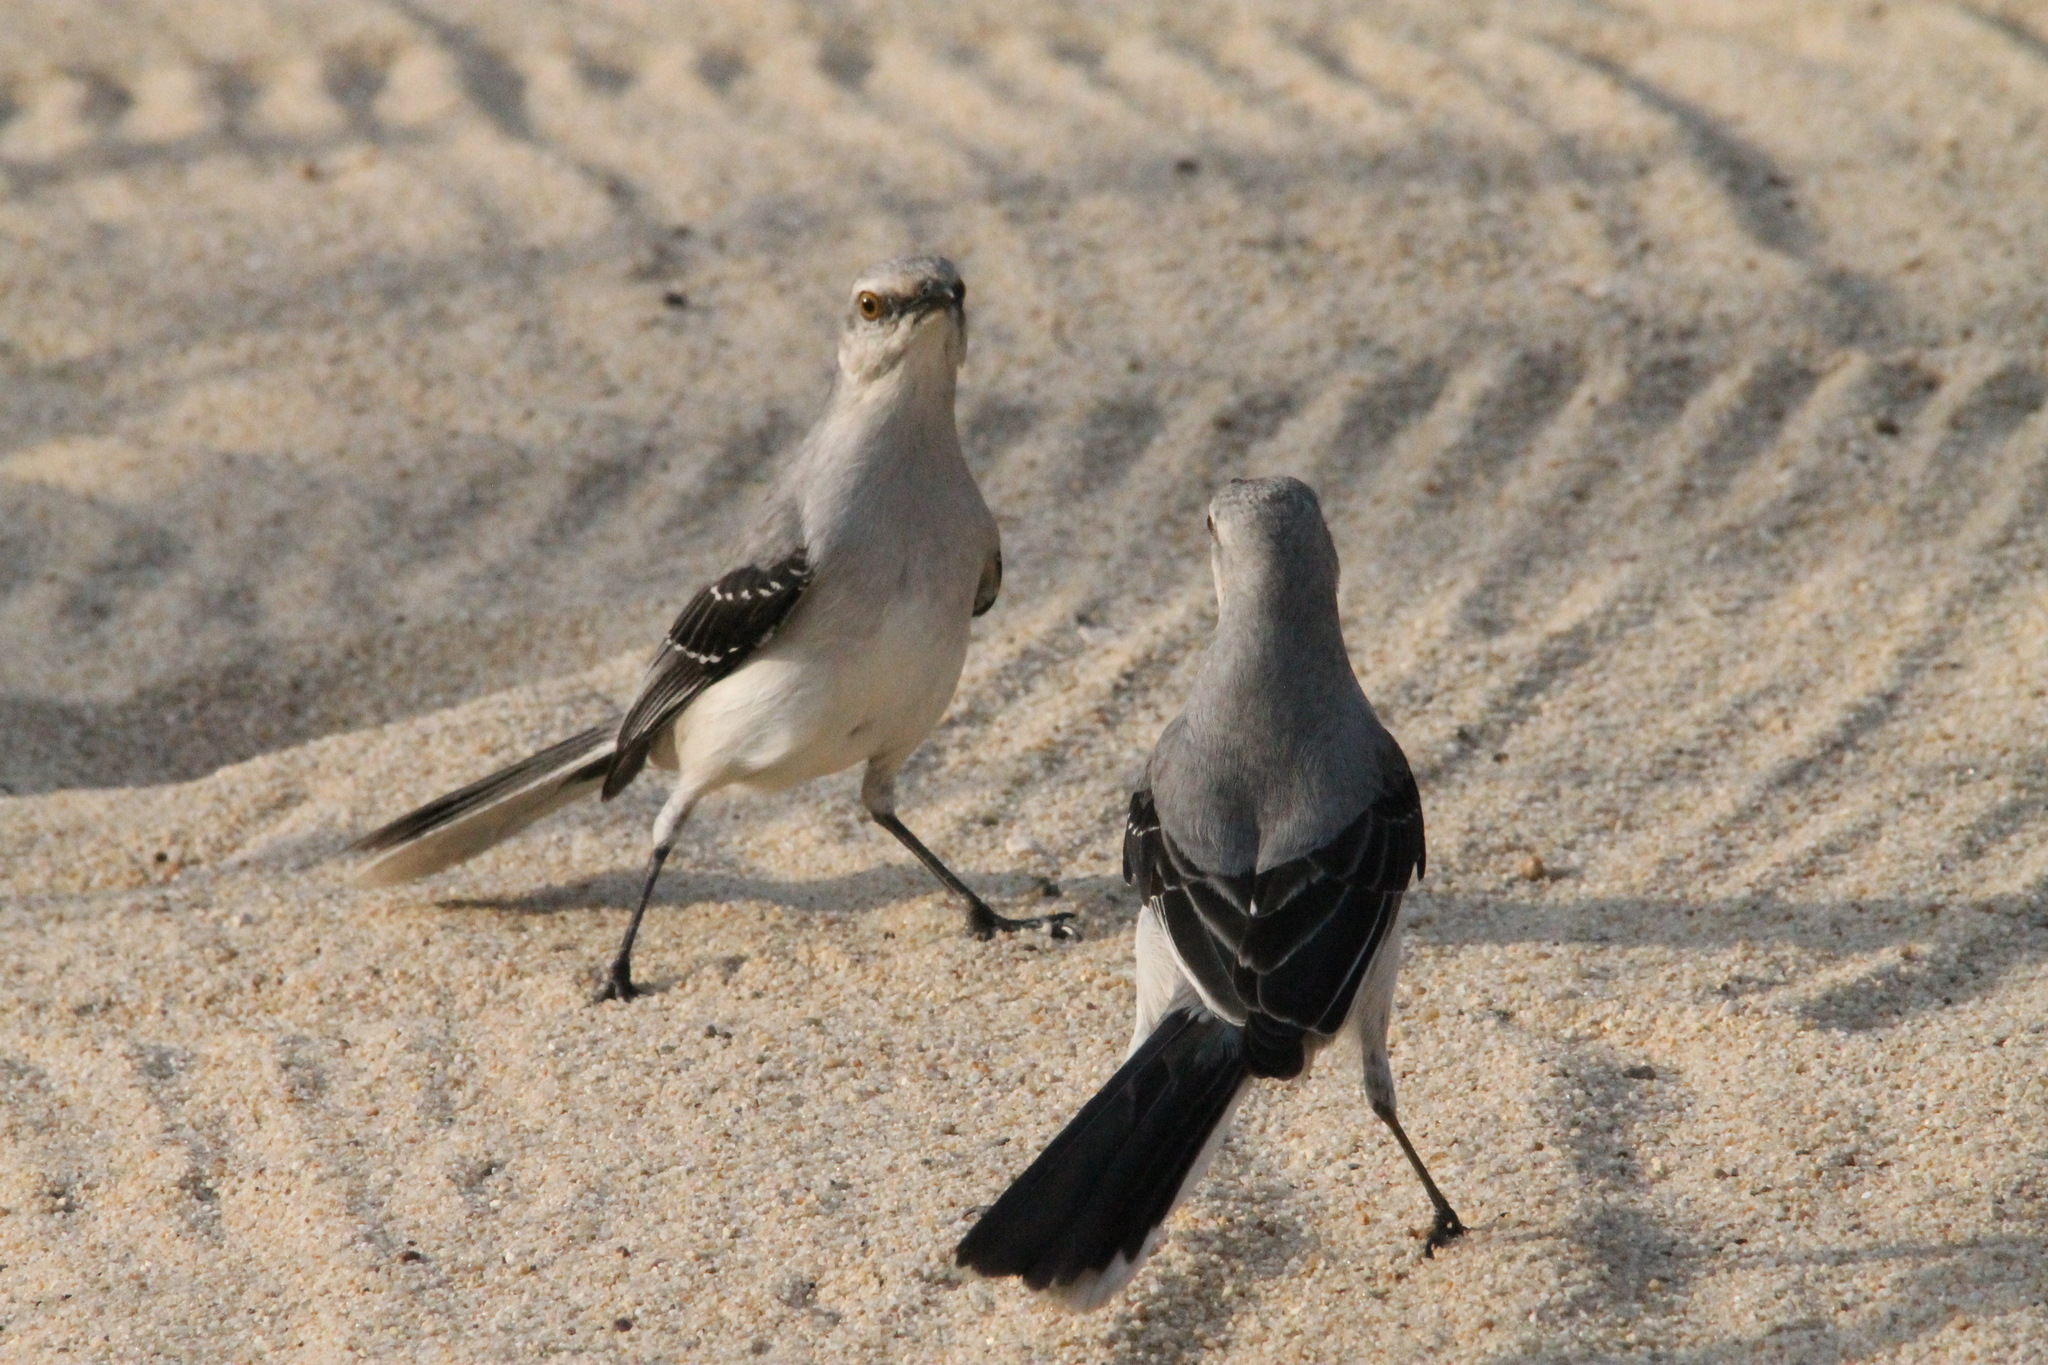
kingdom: Animalia
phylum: Chordata
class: Aves
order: Passeriformes
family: Mimidae
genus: Mimus
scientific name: Mimus gilvus
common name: Tropical mockingbird
